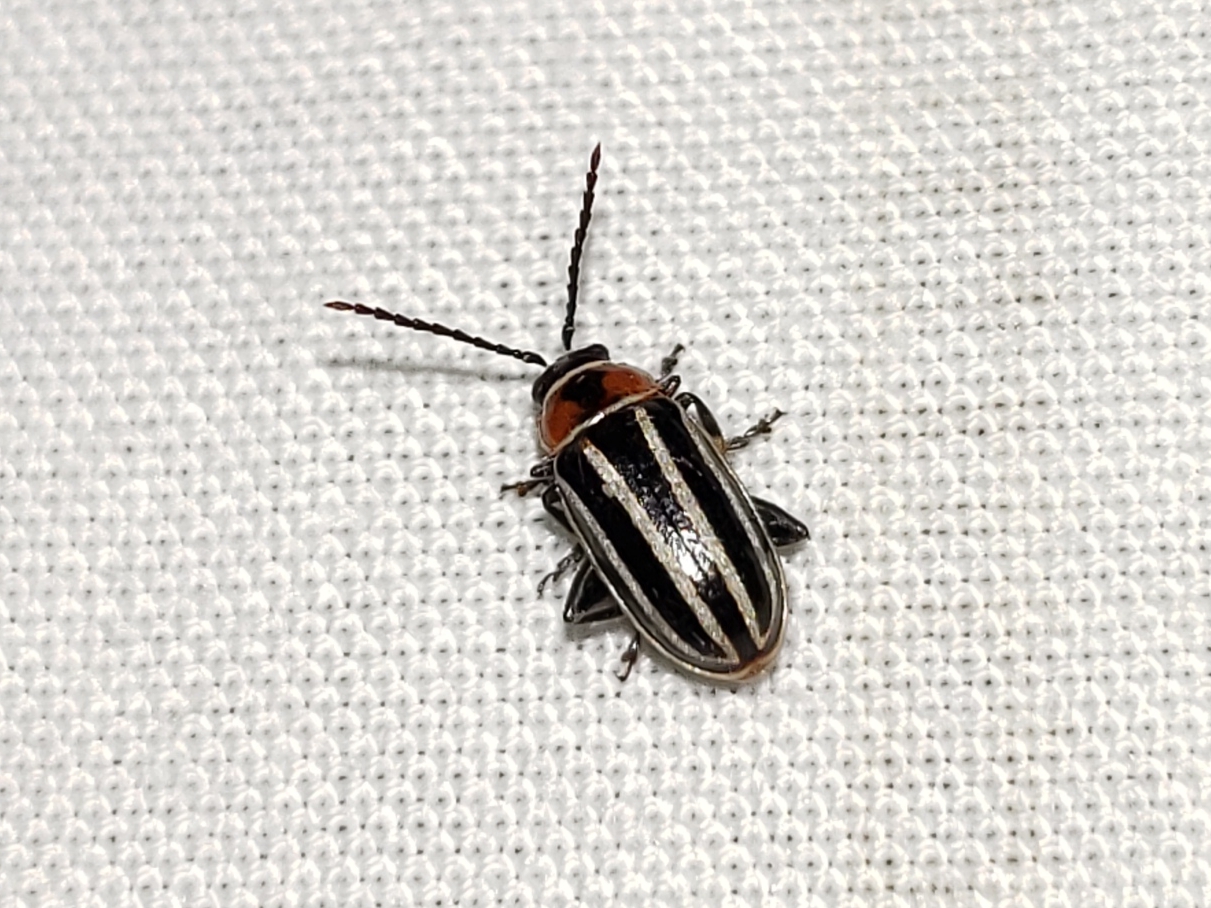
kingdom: Animalia
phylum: Arthropoda
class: Insecta
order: Coleoptera
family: Chrysomelidae
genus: Disonycha
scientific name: Disonycha pensylvanica
